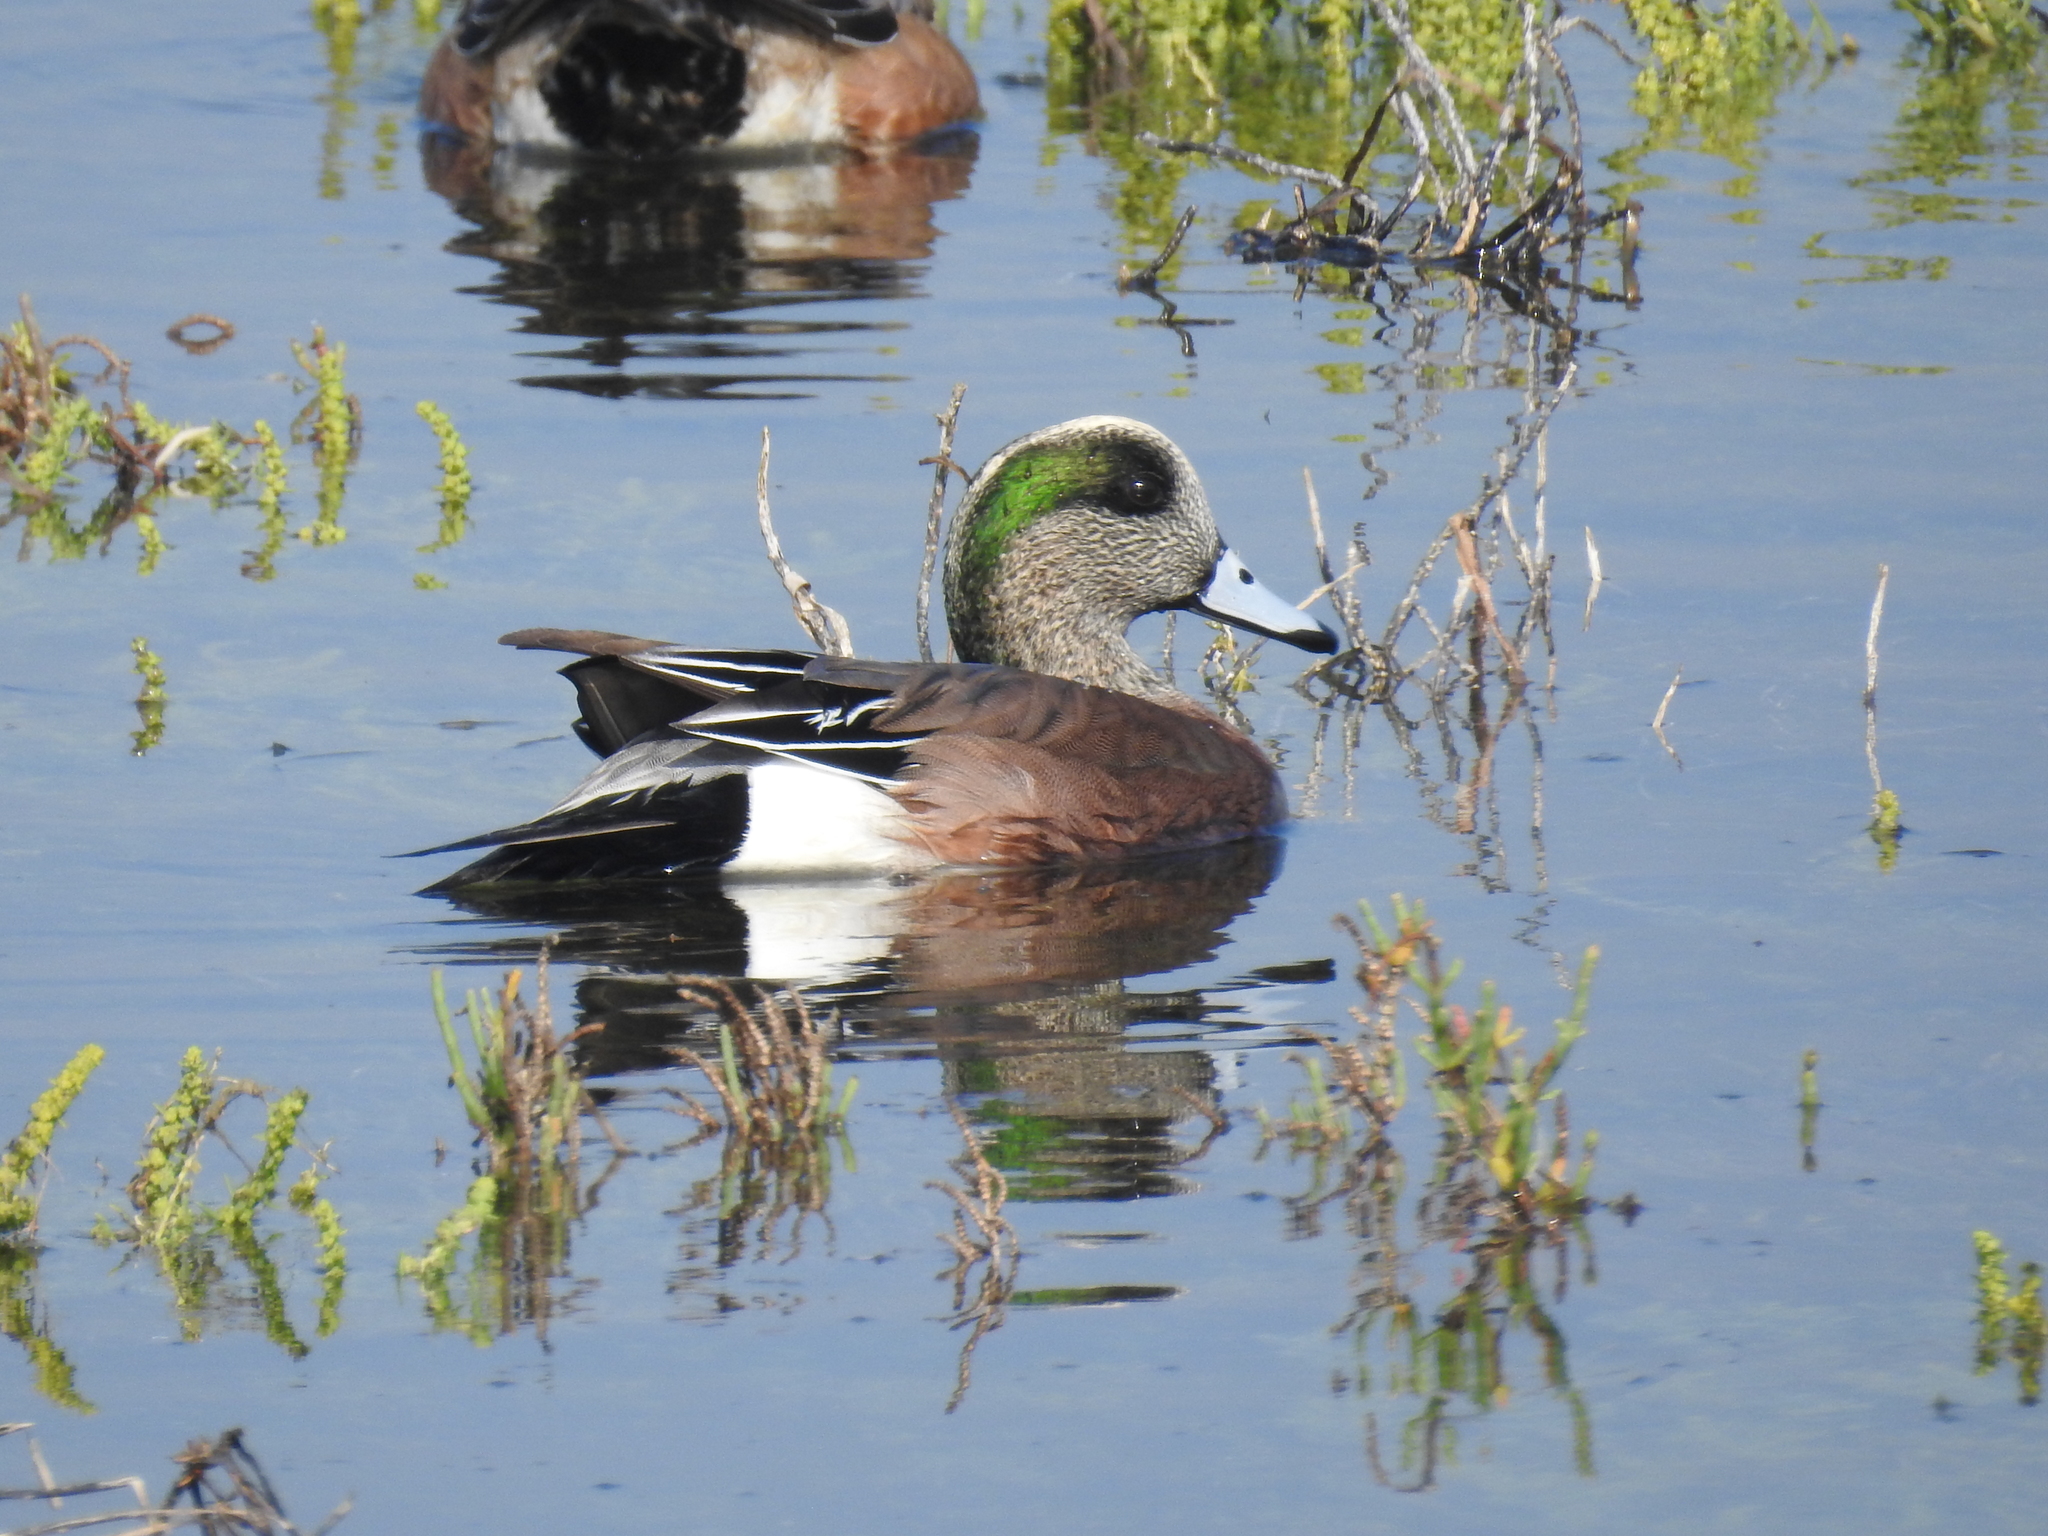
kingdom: Animalia
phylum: Chordata
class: Aves
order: Anseriformes
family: Anatidae
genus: Mareca
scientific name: Mareca americana
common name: American wigeon
